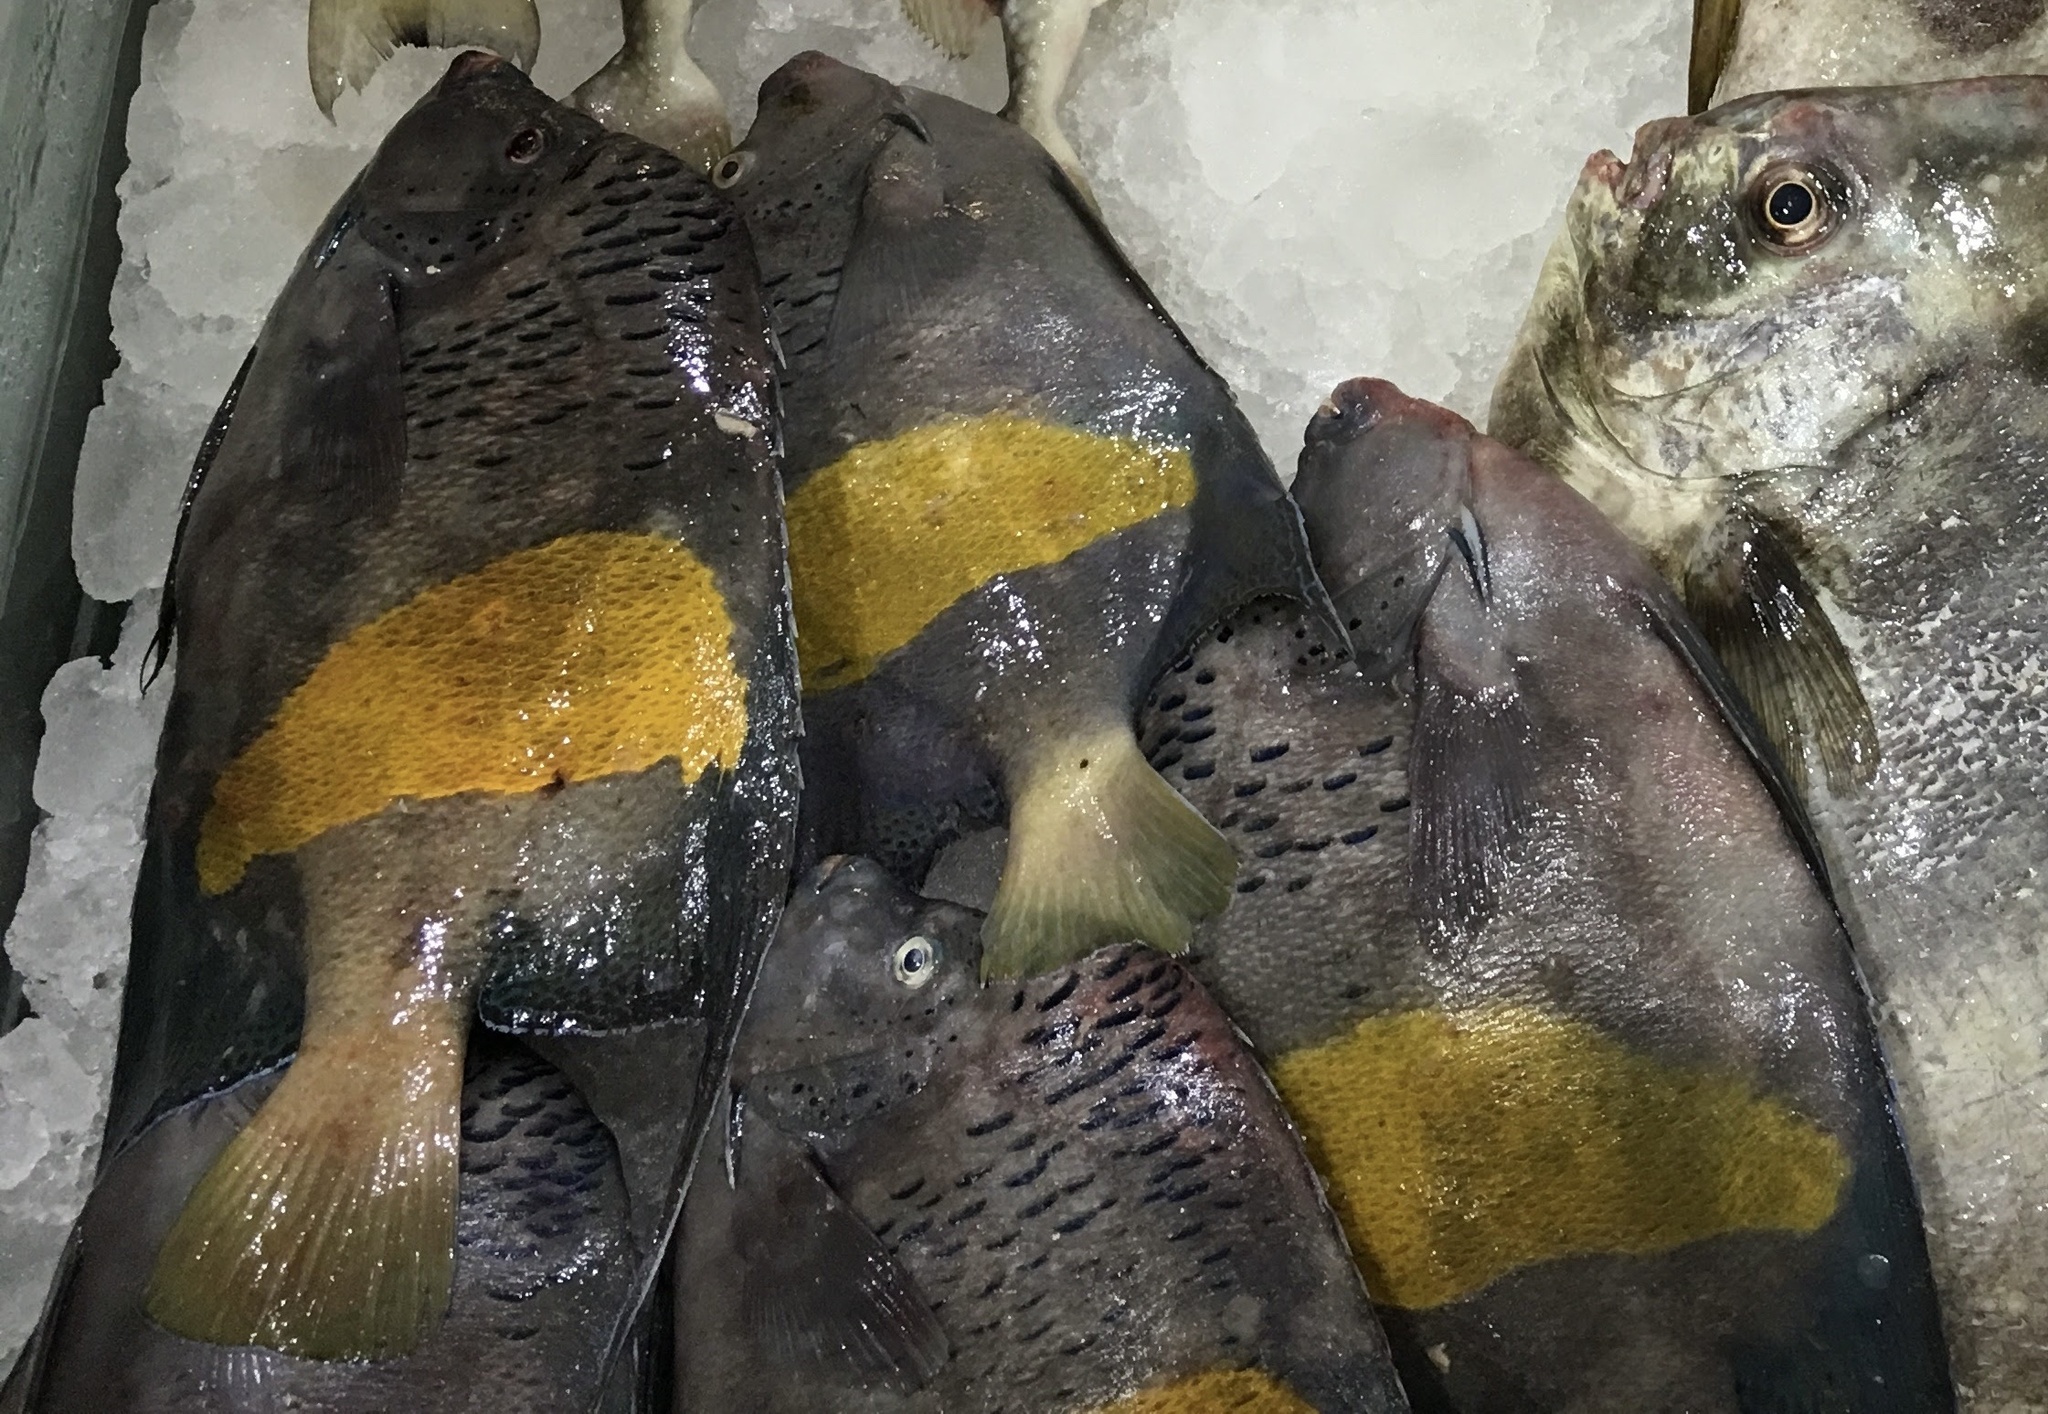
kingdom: Animalia
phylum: Chordata
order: Perciformes
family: Pomacanthidae
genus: Pomacanthus
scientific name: Pomacanthus maculosus
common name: Yellowbar angelfish
